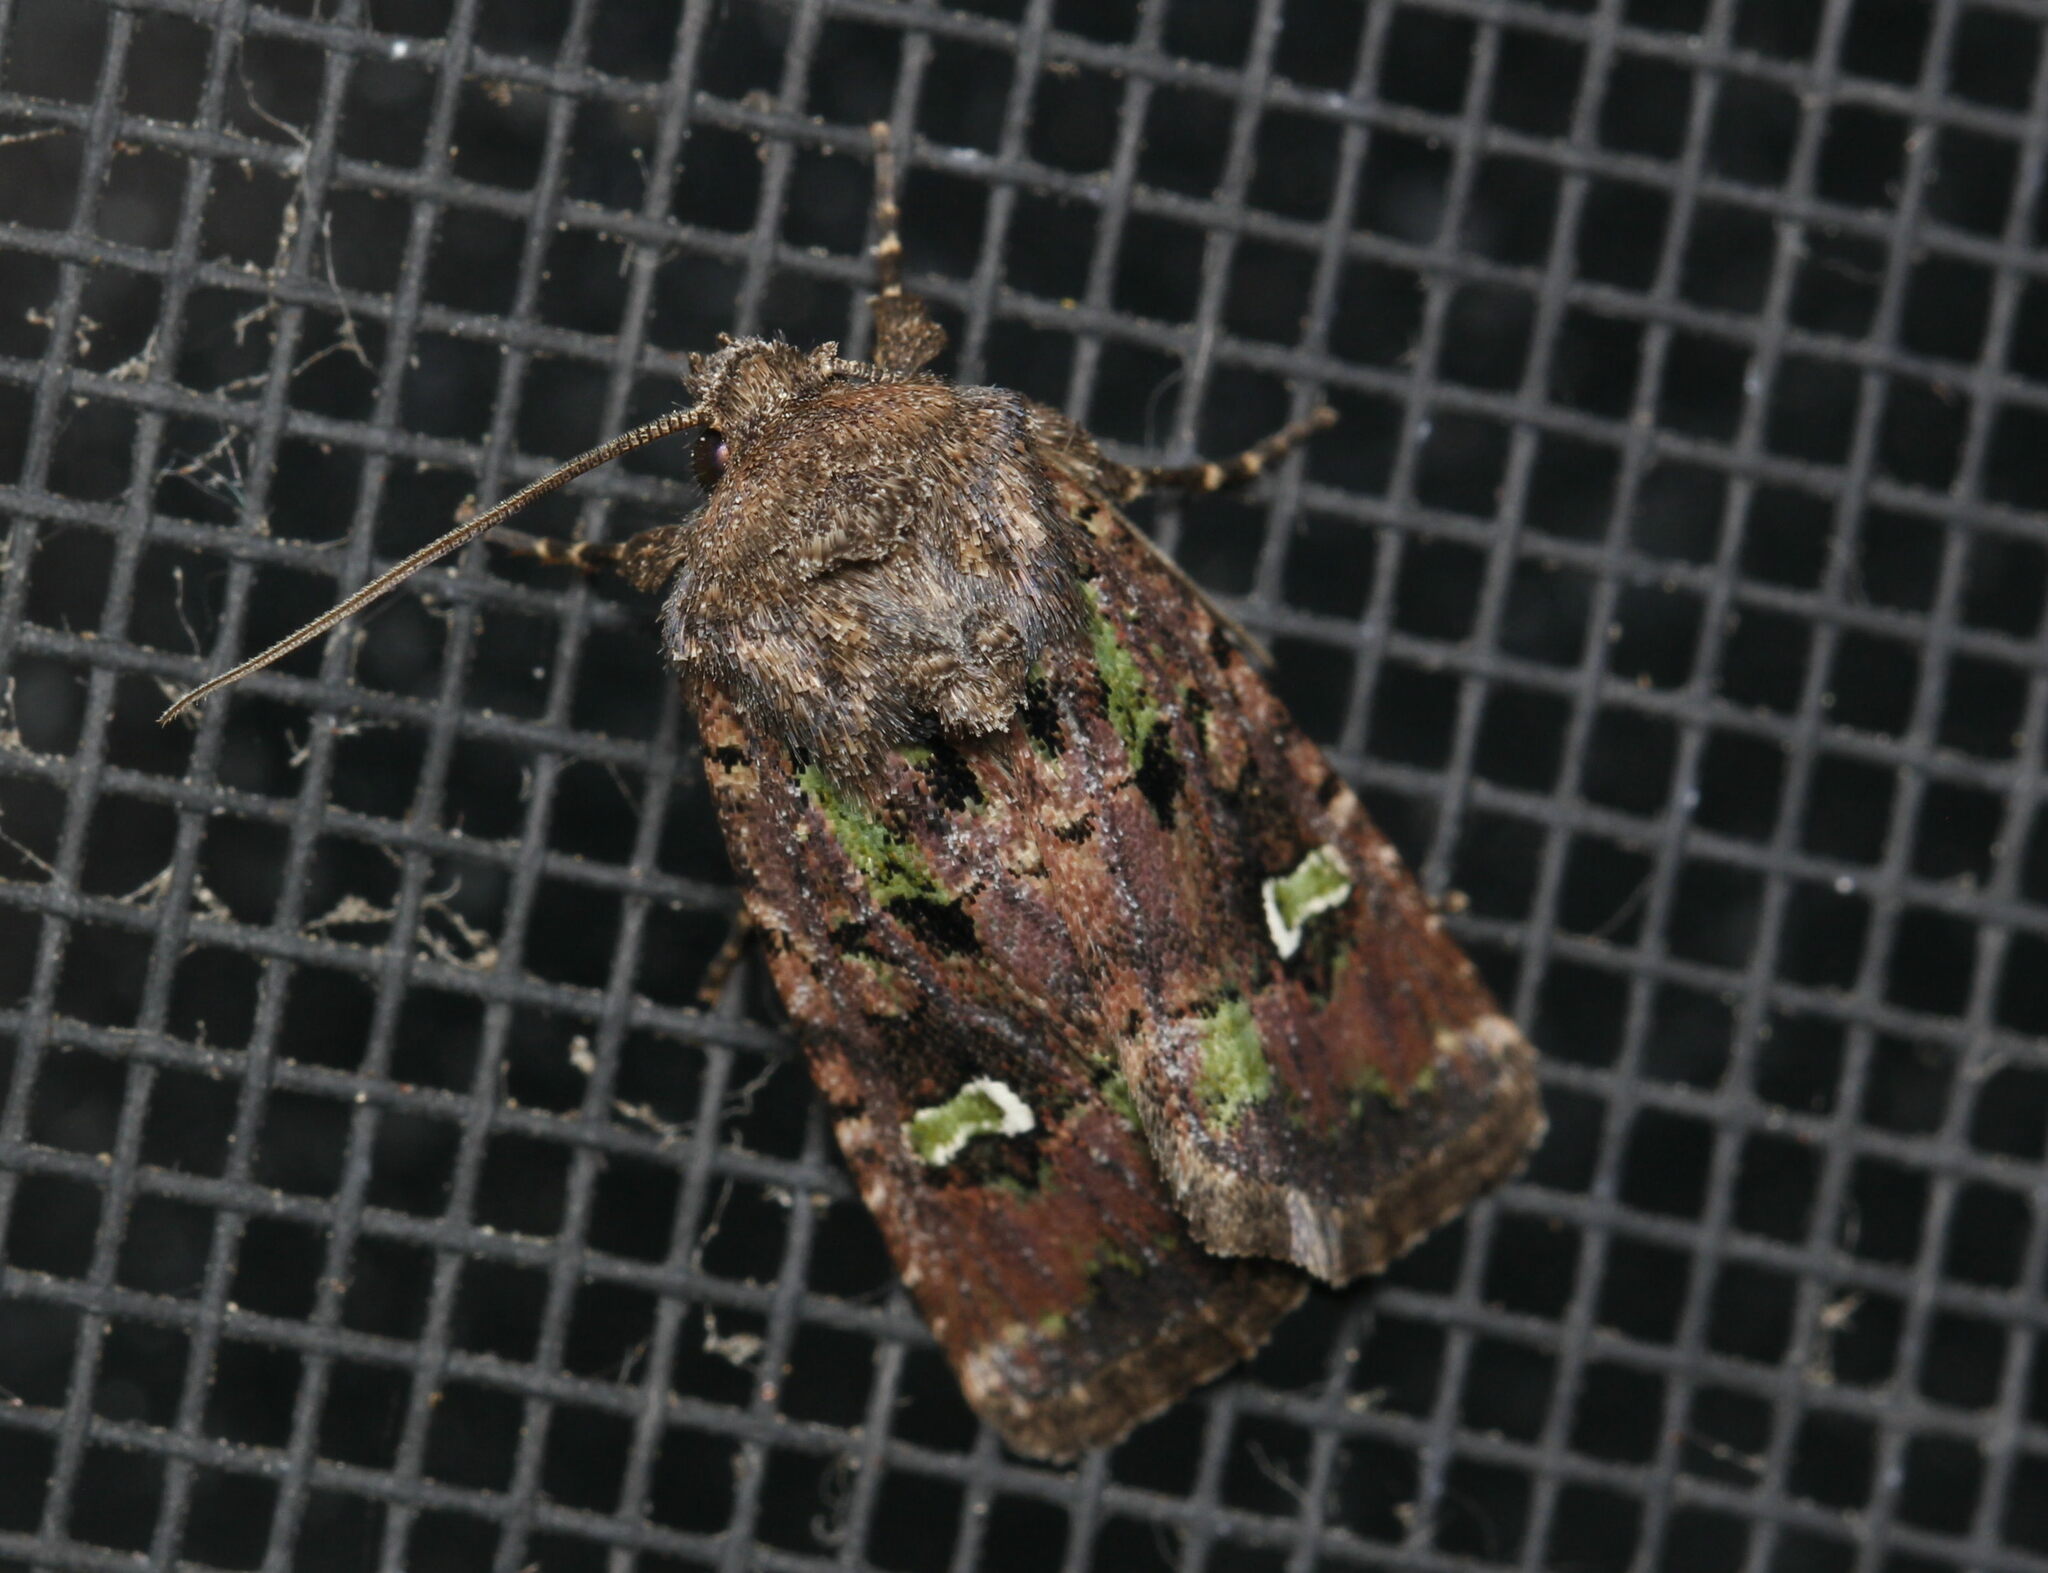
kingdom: Animalia
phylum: Arthropoda
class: Insecta
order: Lepidoptera
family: Noctuidae
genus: Lacinipolia
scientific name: Lacinipolia renigera
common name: Kidney-spotted minor
